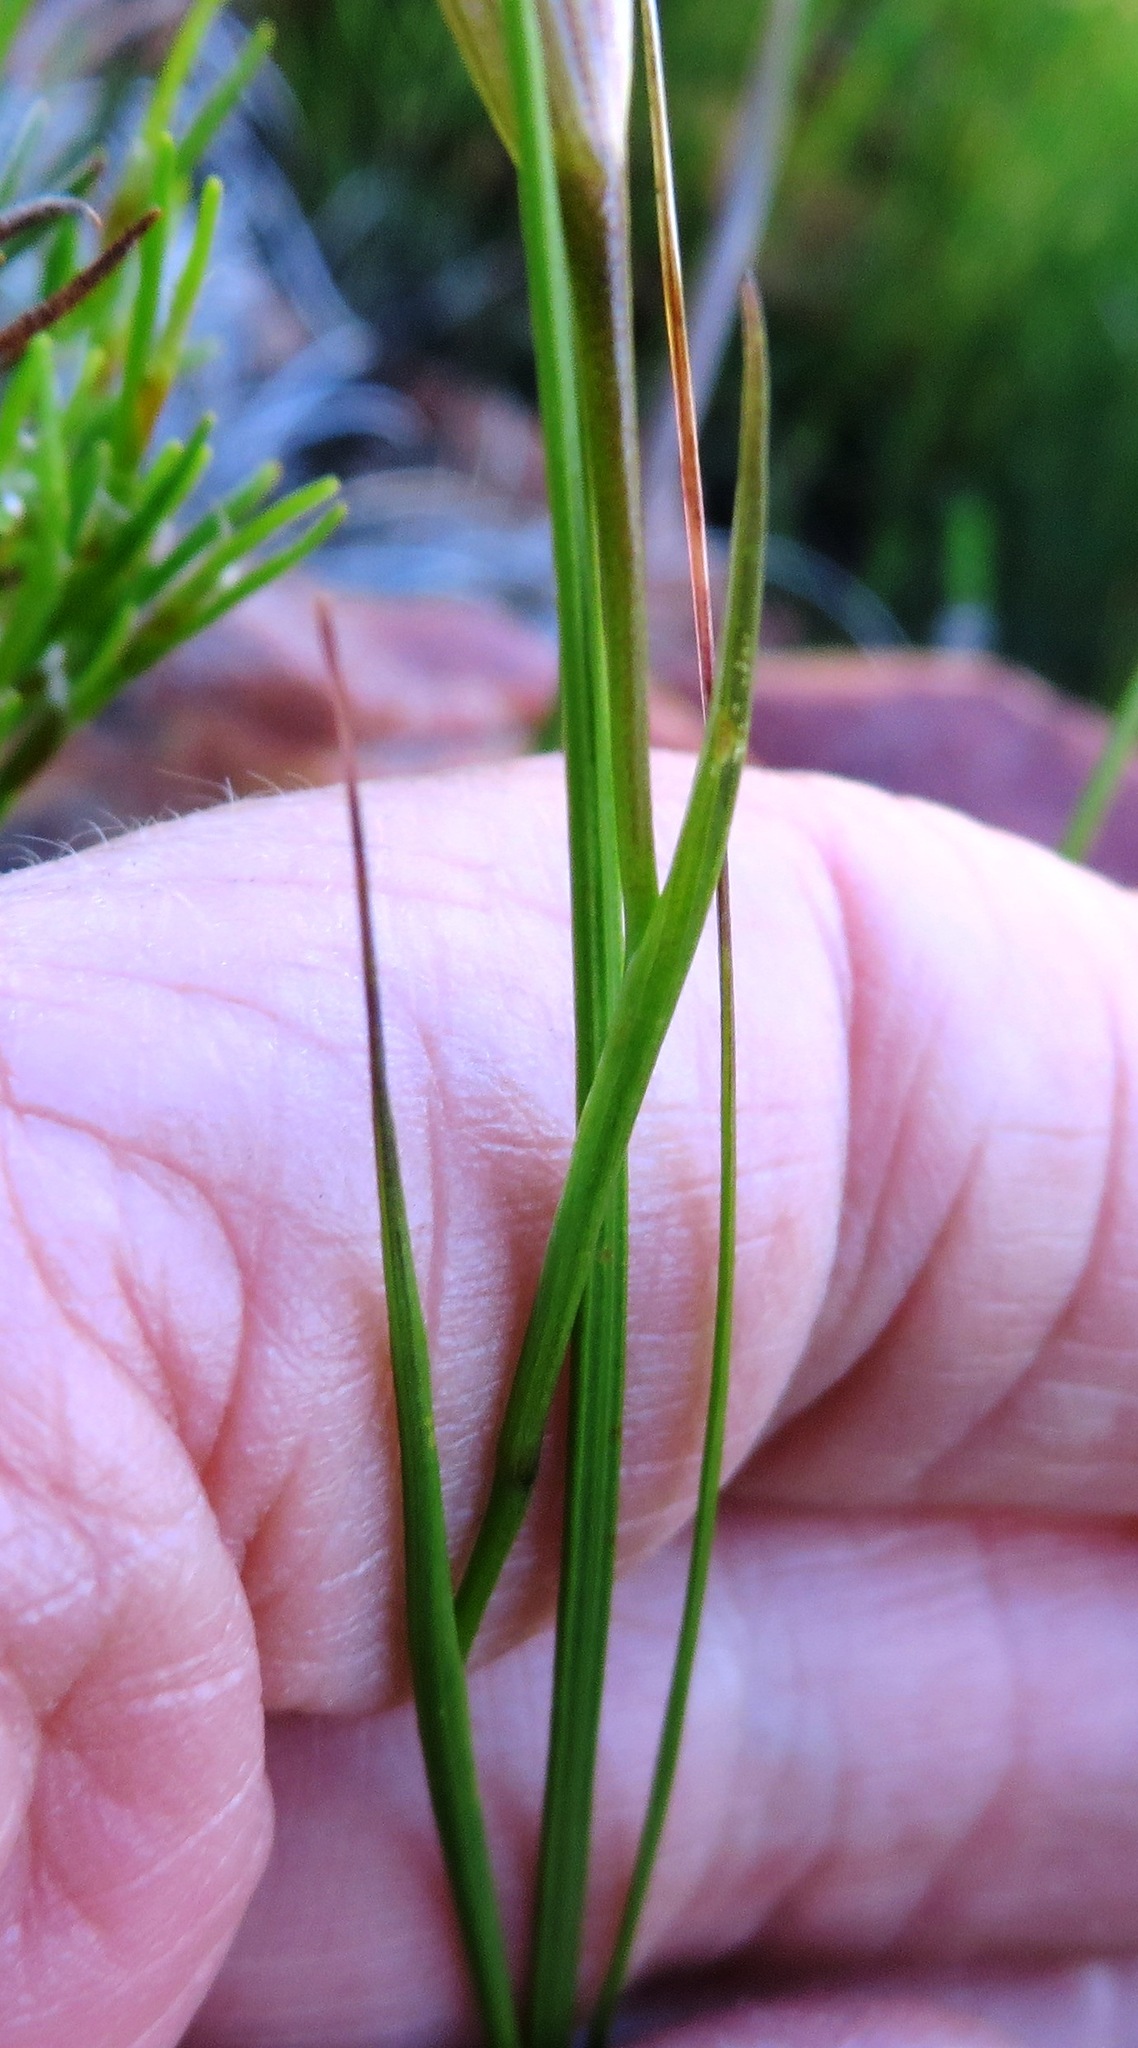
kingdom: Plantae
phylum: Tracheophyta
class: Liliopsida
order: Asparagales
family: Iridaceae
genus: Gladiolus
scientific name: Gladiolus hirsutus
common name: Small pink afrikaner
